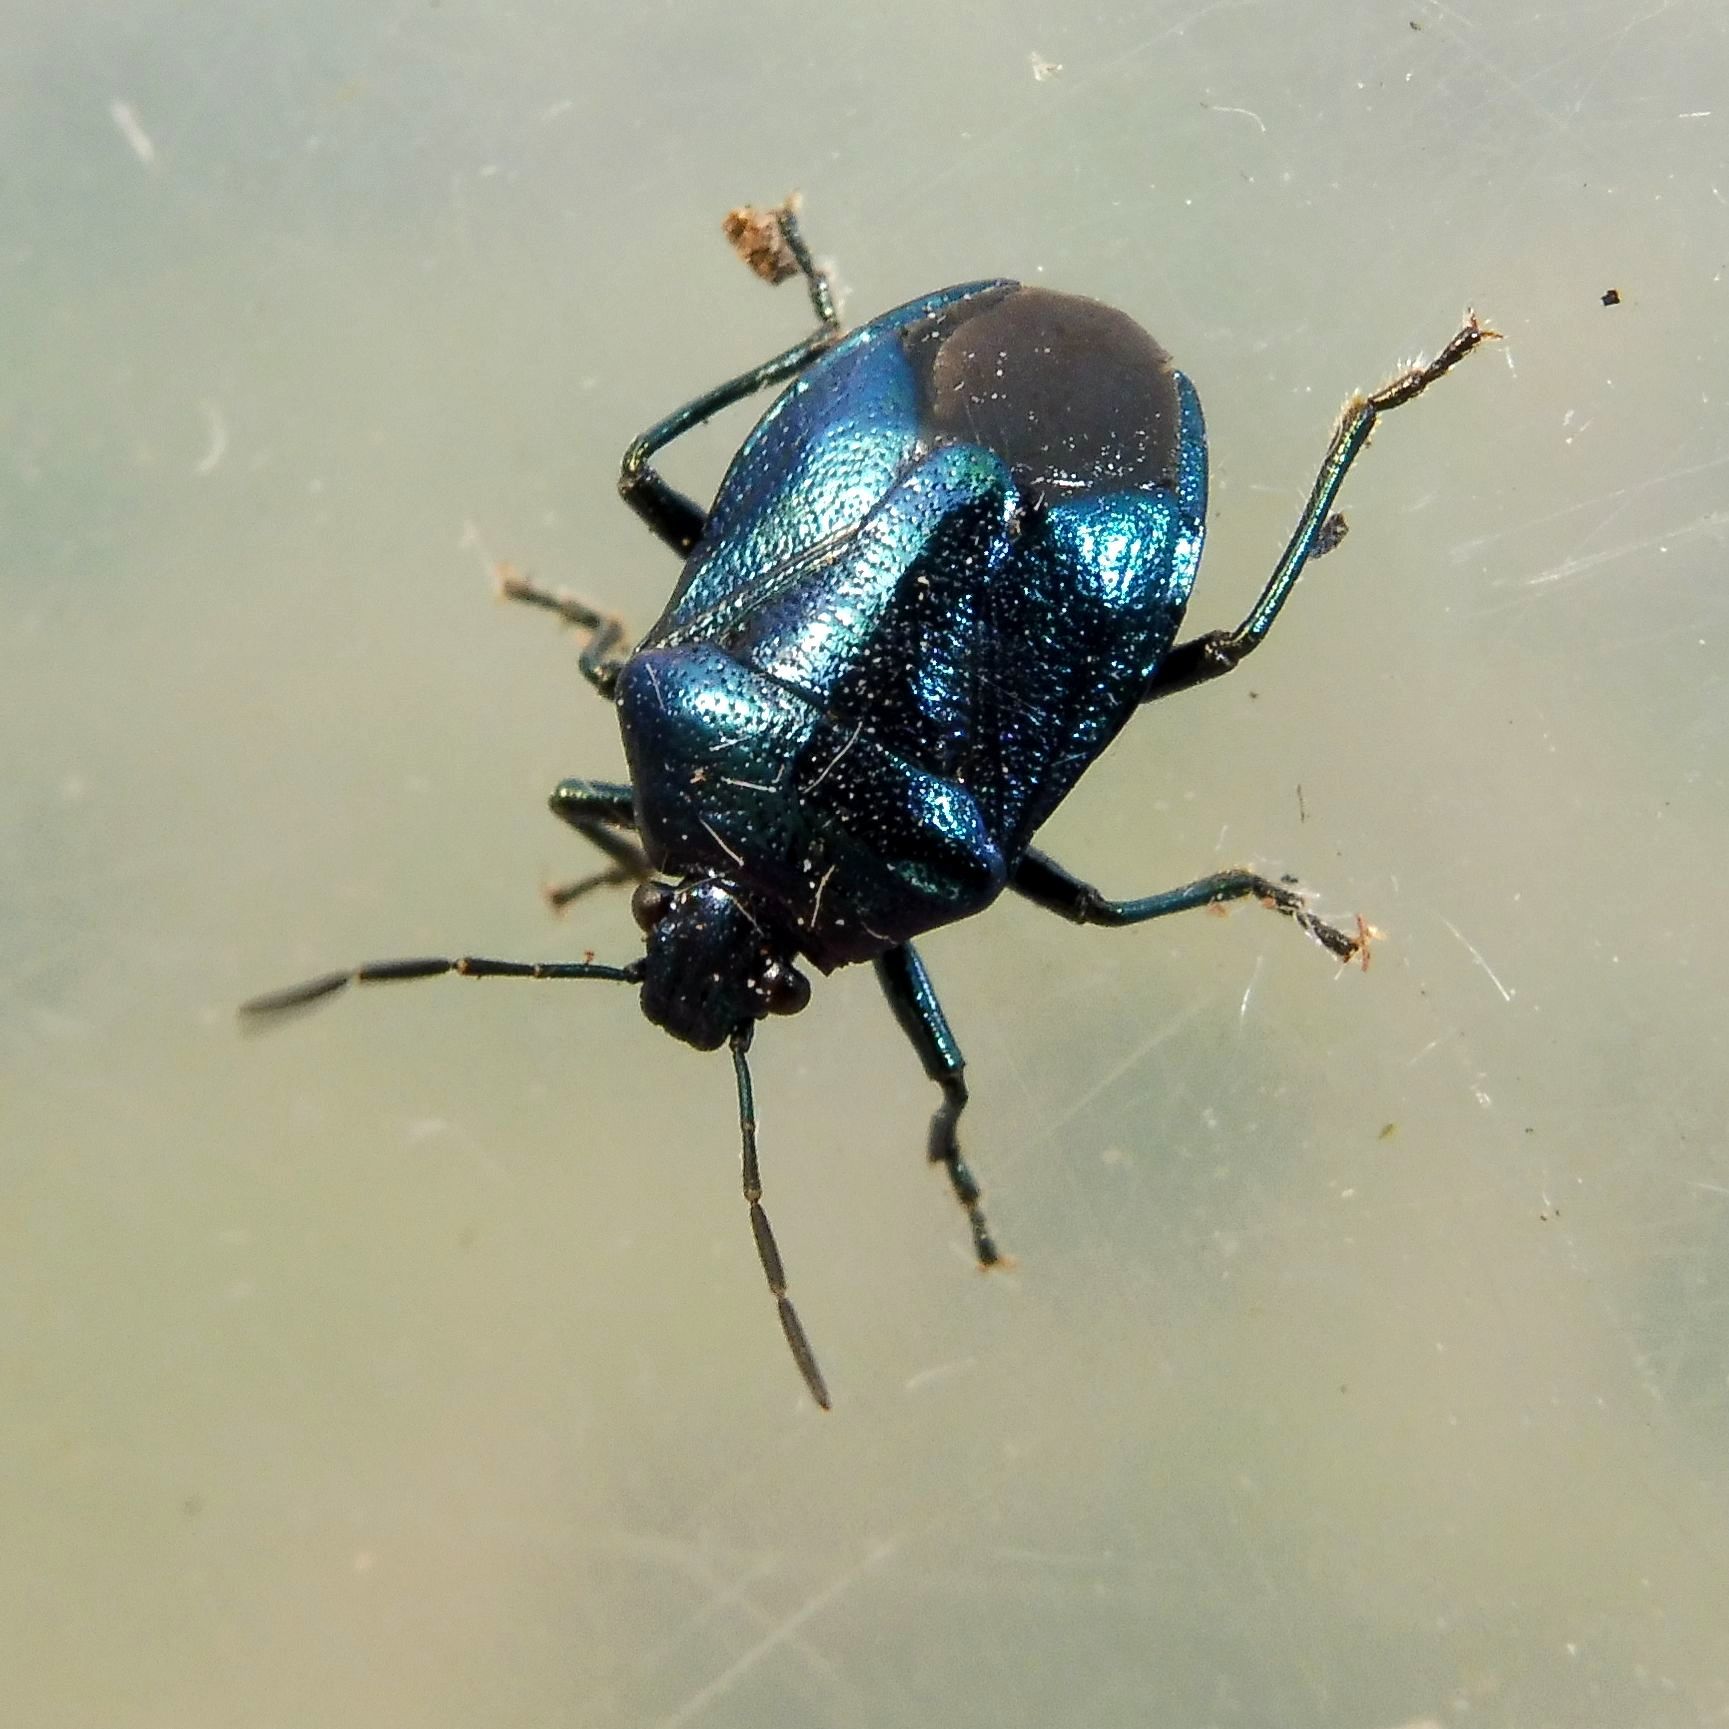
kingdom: Animalia
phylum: Arthropoda
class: Insecta
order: Hemiptera
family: Pentatomidae
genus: Zicrona
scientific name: Zicrona caerulea
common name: Blue shieldbug
